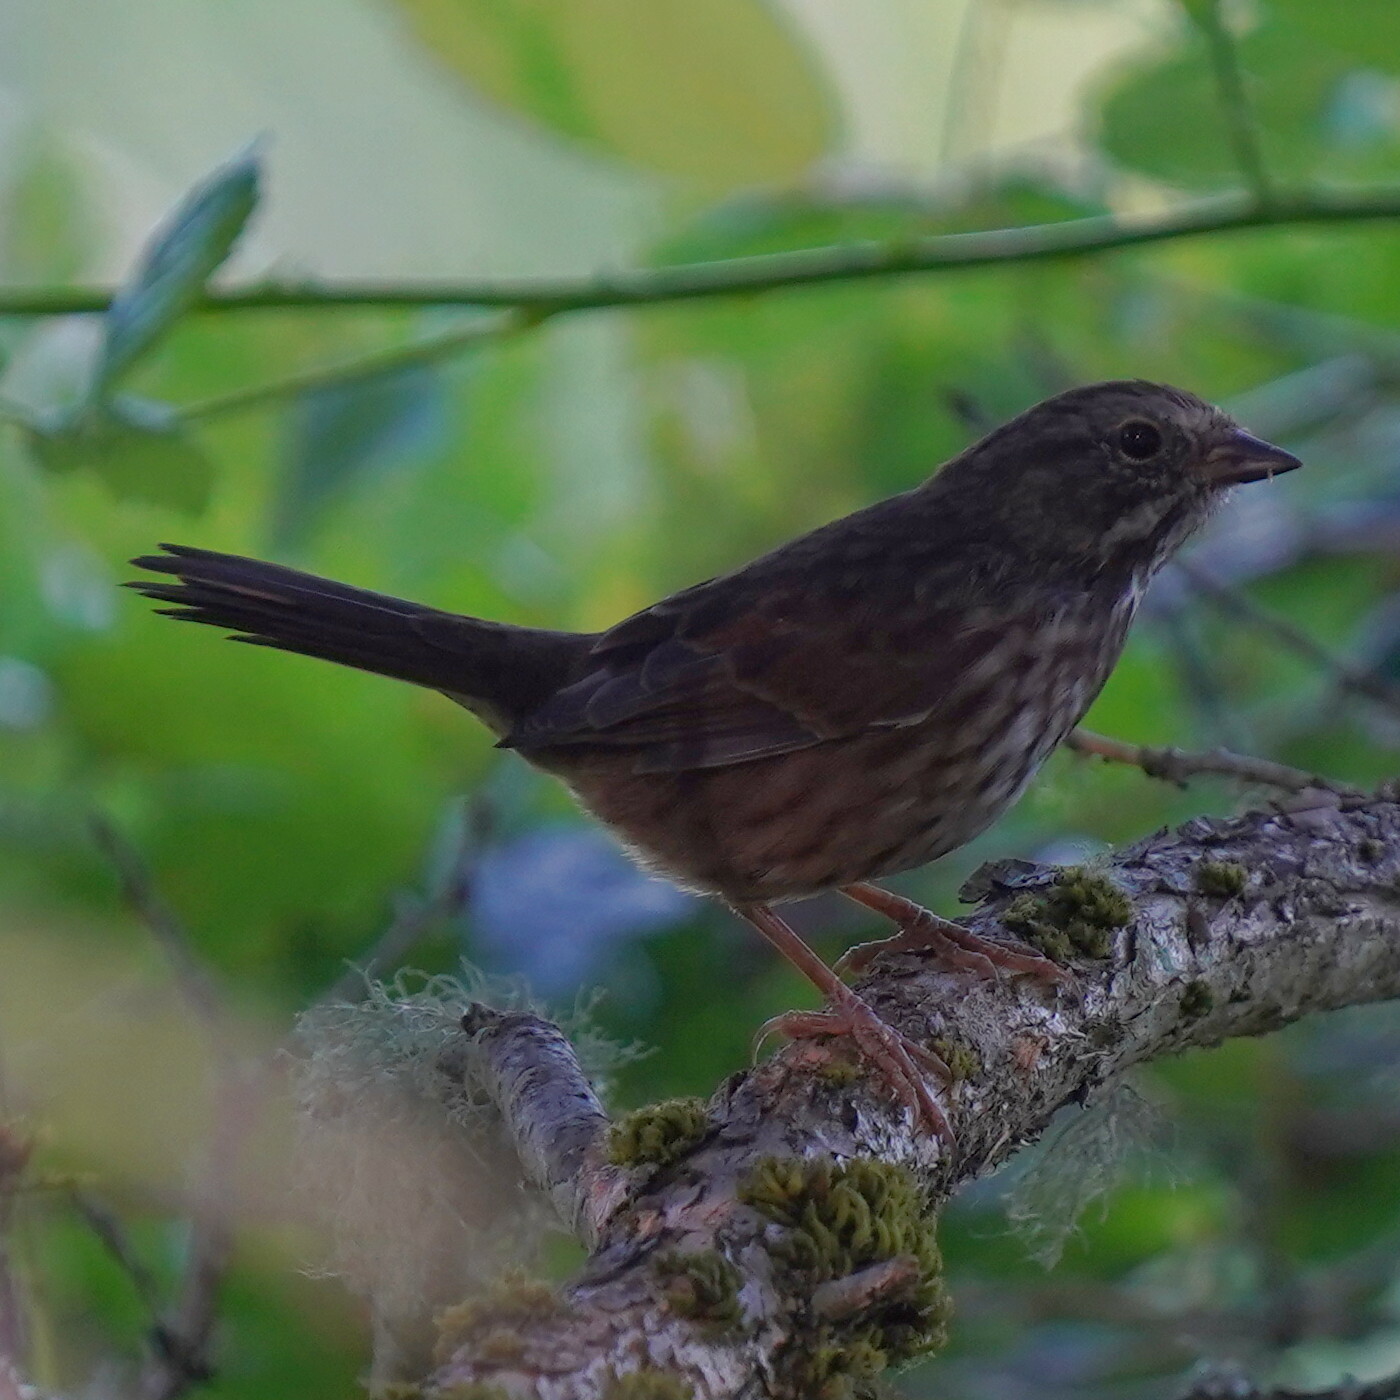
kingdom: Animalia
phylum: Chordata
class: Aves
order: Passeriformes
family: Passerellidae
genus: Melospiza
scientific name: Melospiza melodia
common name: Song sparrow
